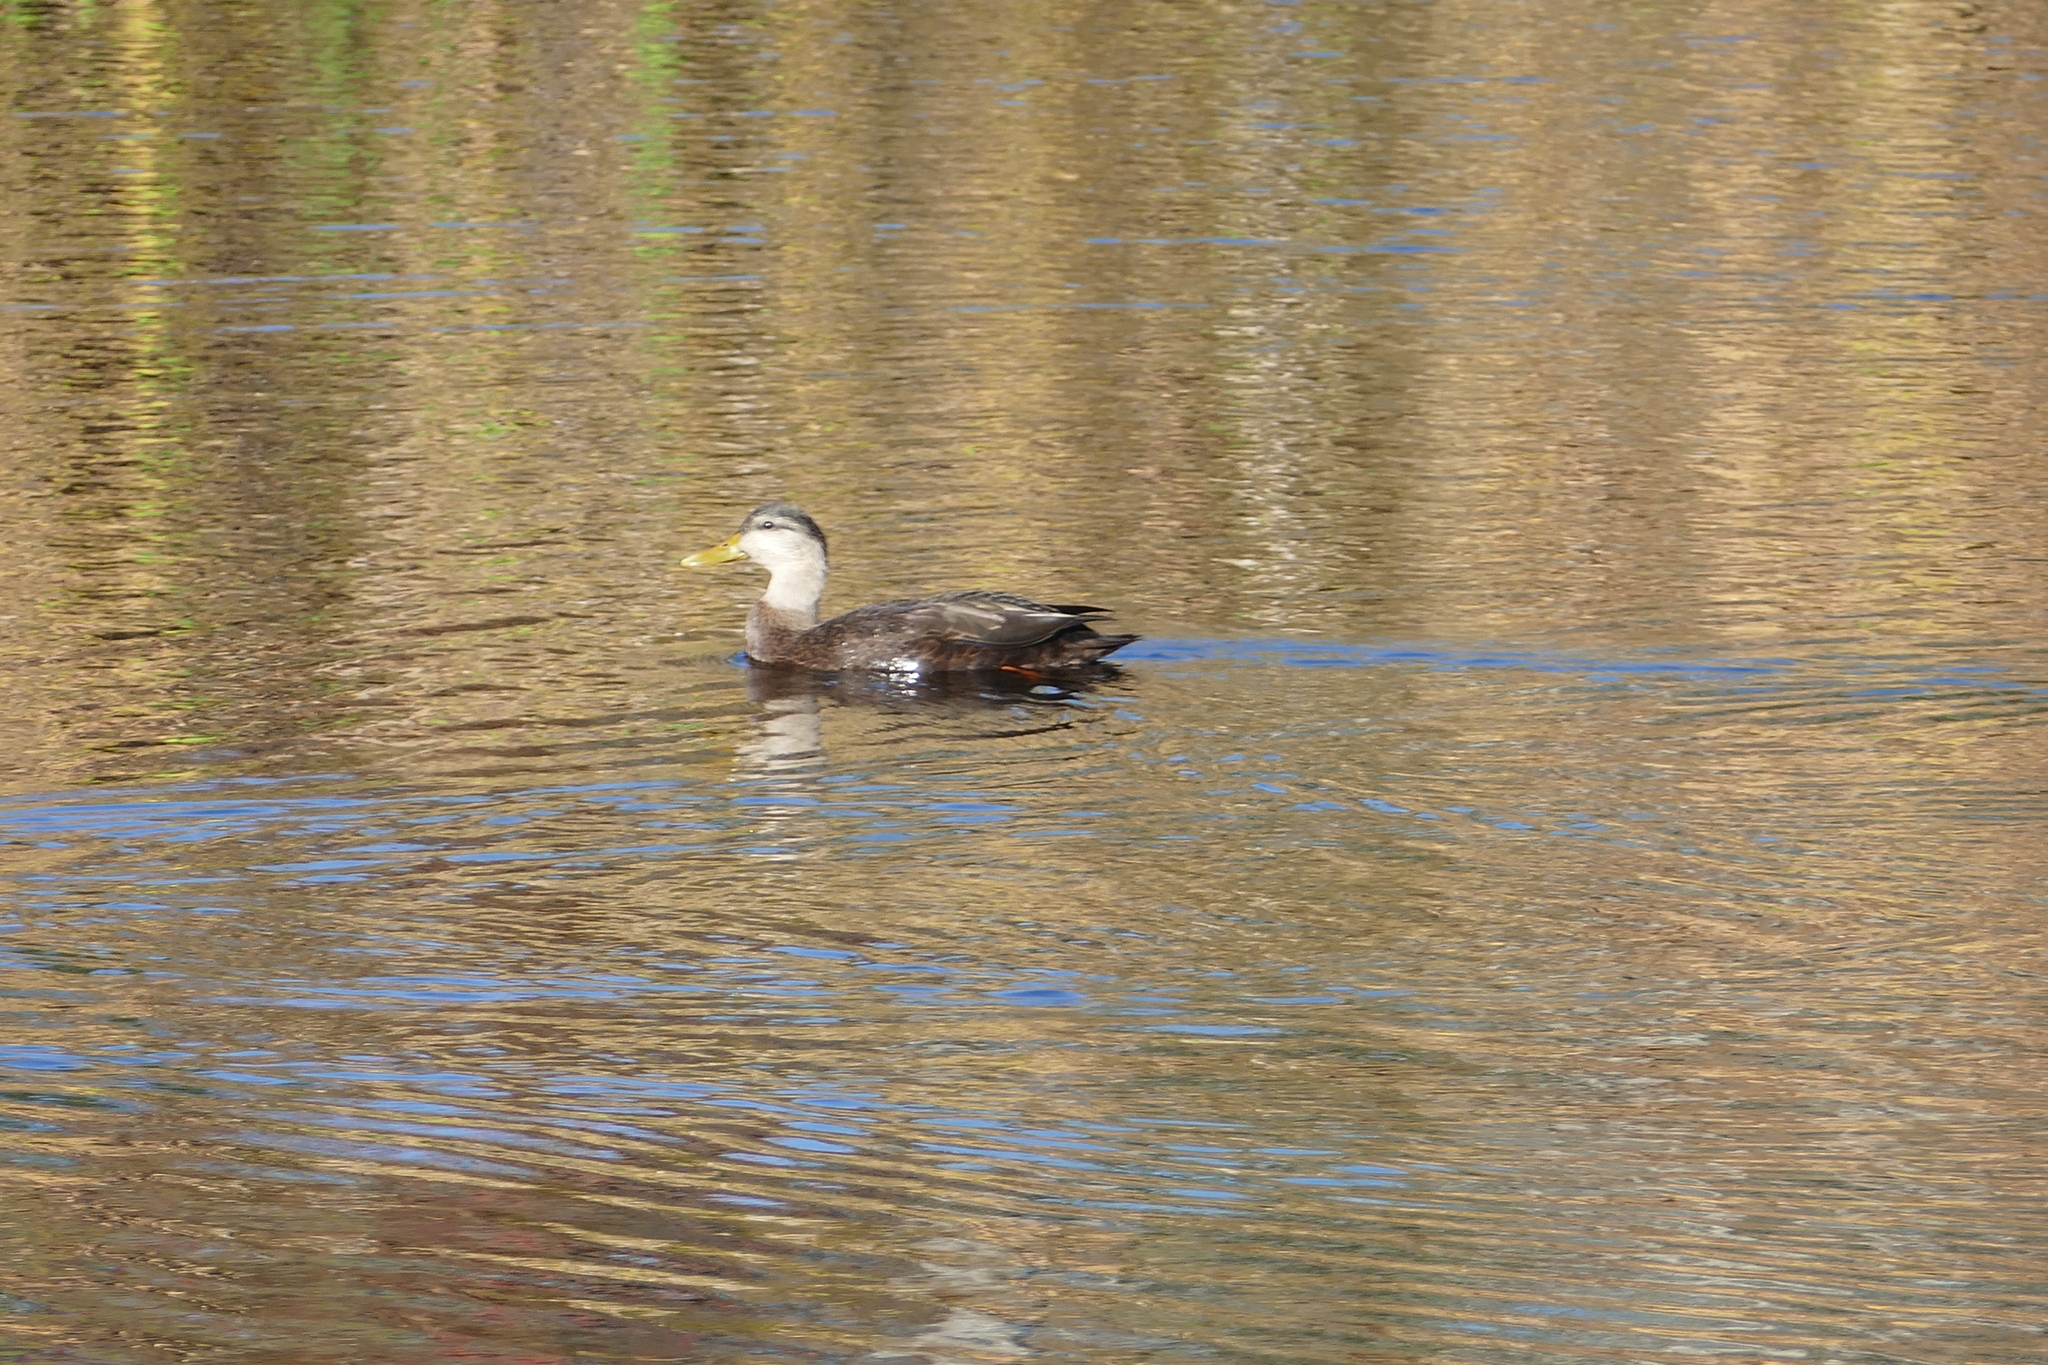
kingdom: Animalia
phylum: Chordata
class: Aves
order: Anseriformes
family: Anatidae
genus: Anas
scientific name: Anas rubripes
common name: American black duck
